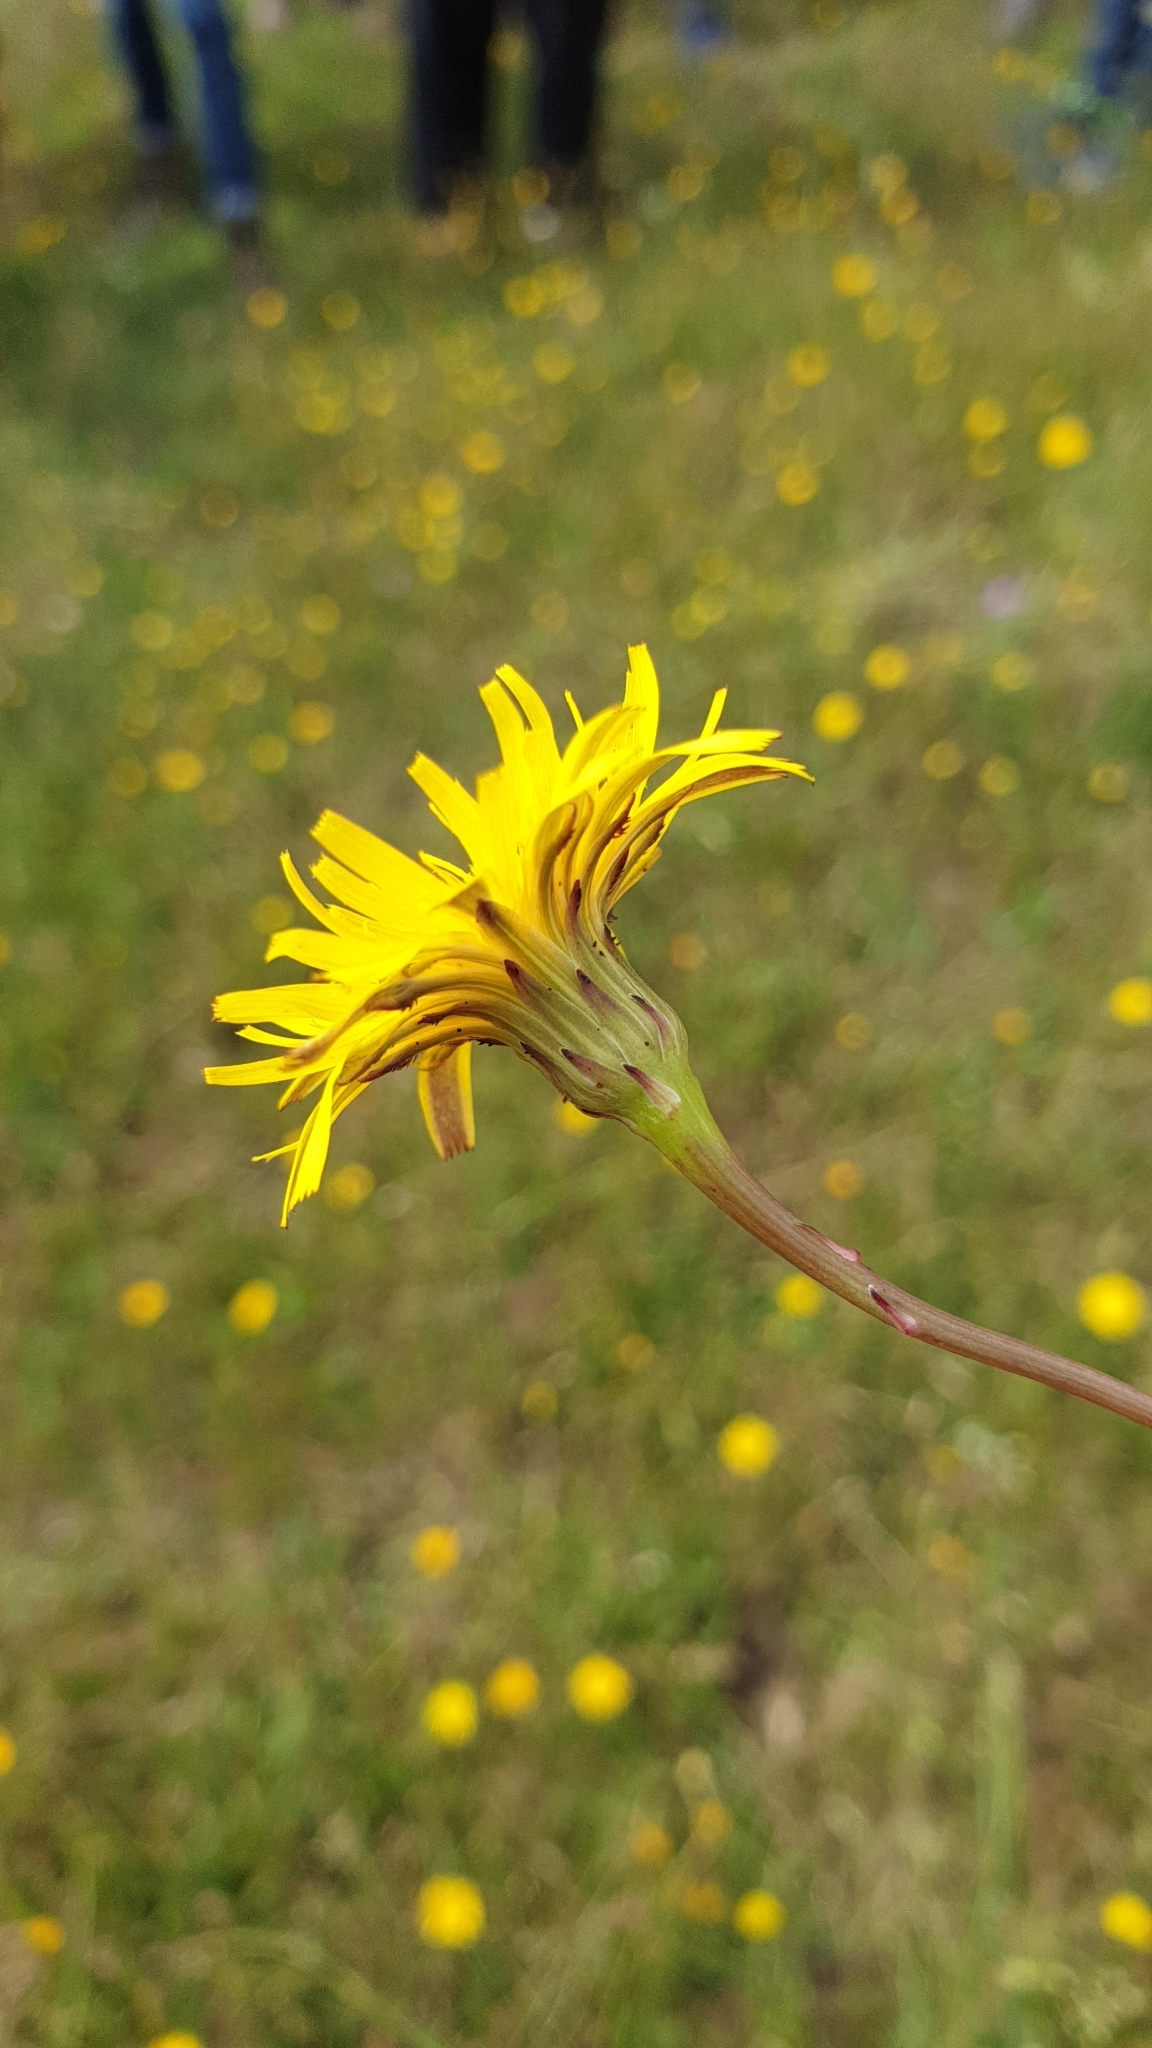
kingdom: Plantae
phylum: Tracheophyta
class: Magnoliopsida
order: Asterales
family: Asteraceae
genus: Hypochaeris
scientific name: Hypochaeris radicata
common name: Flatweed
